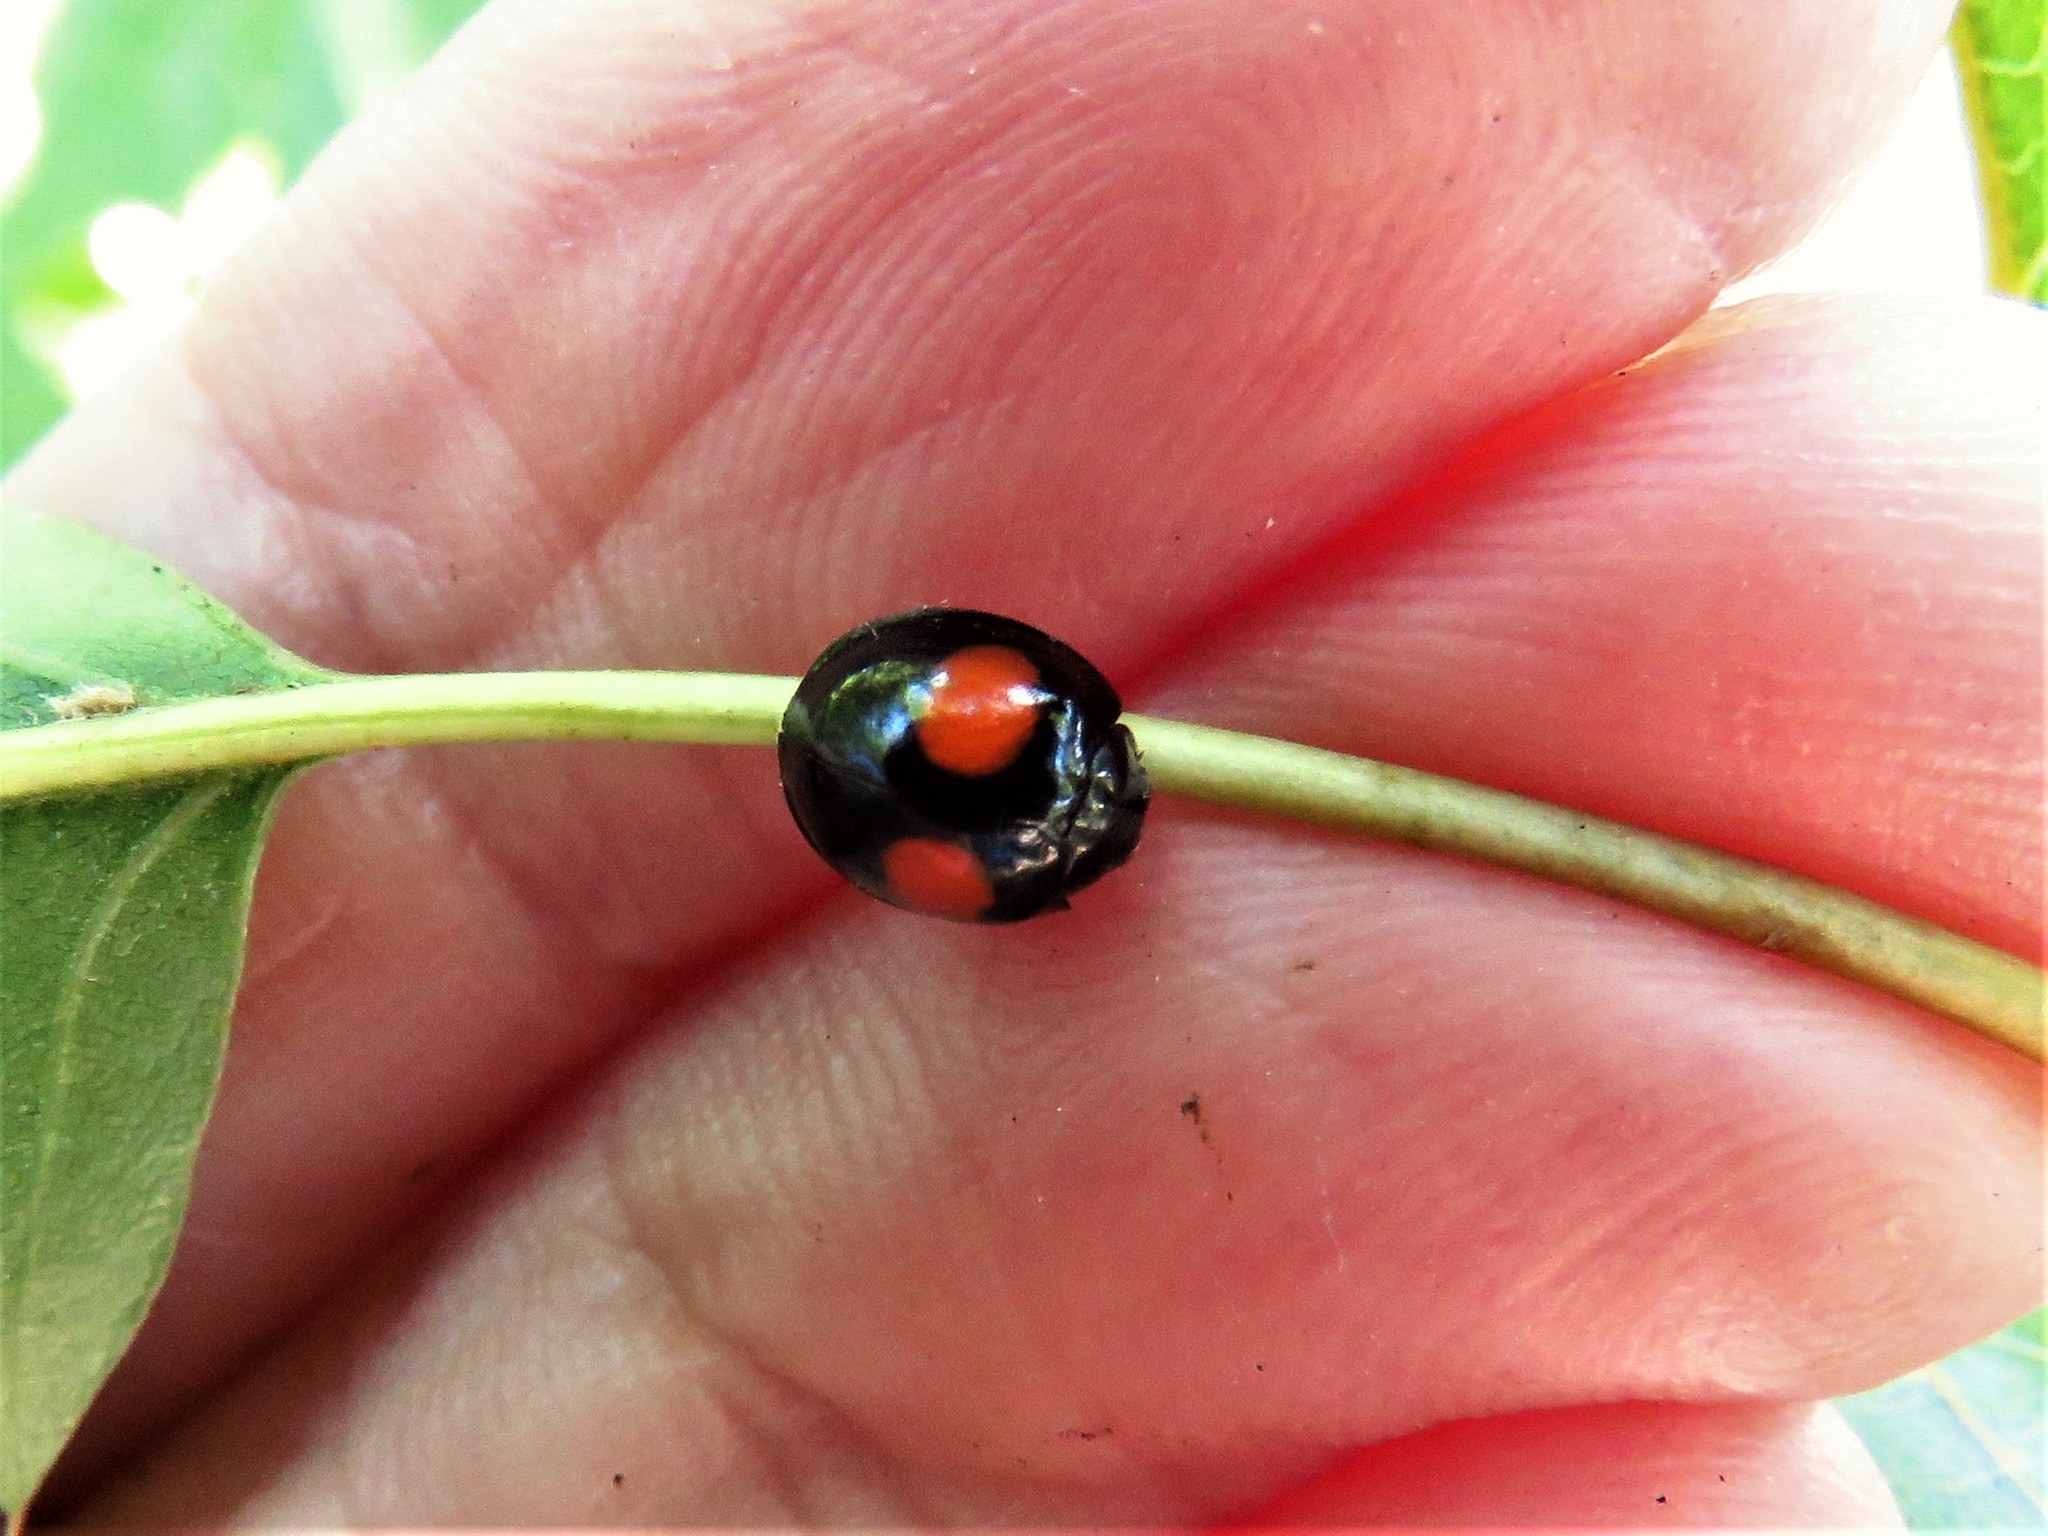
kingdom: Animalia
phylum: Arthropoda
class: Insecta
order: Coleoptera
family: Coccinellidae
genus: Chilocorus
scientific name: Chilocorus cacti
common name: Cactus lady beetle
